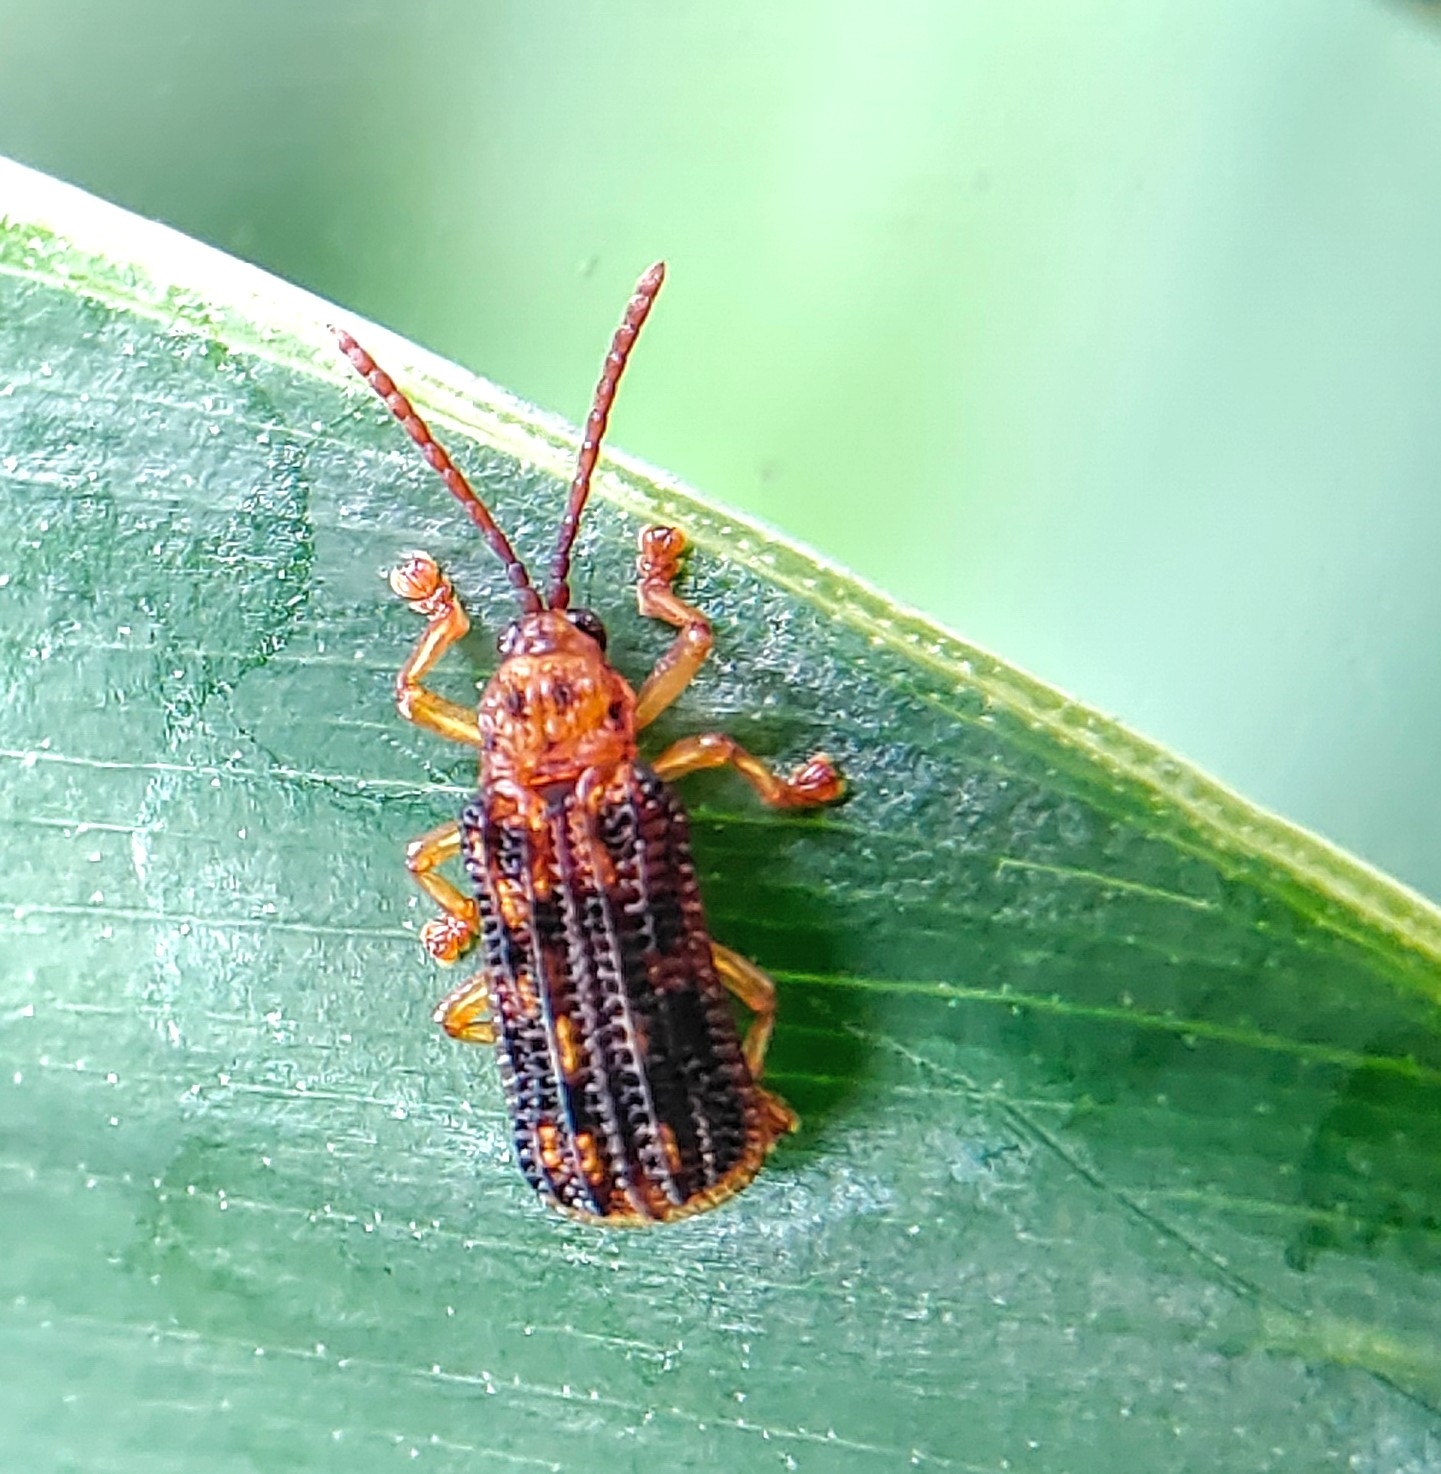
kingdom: Animalia
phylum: Arthropoda
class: Insecta
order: Coleoptera
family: Chrysomelidae
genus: Gonophora
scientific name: Gonophora pulchella
